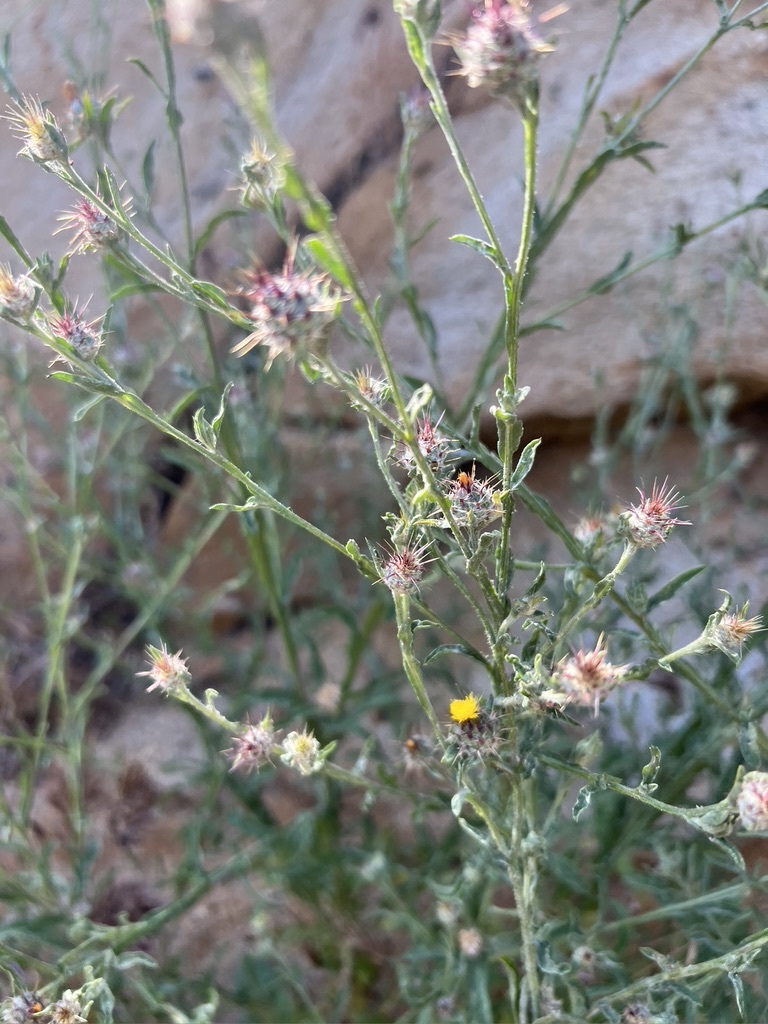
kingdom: Plantae
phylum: Tracheophyta
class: Magnoliopsida
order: Asterales
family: Asteraceae
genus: Centaurea
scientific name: Centaurea melitensis
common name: Maltese star-thistle
